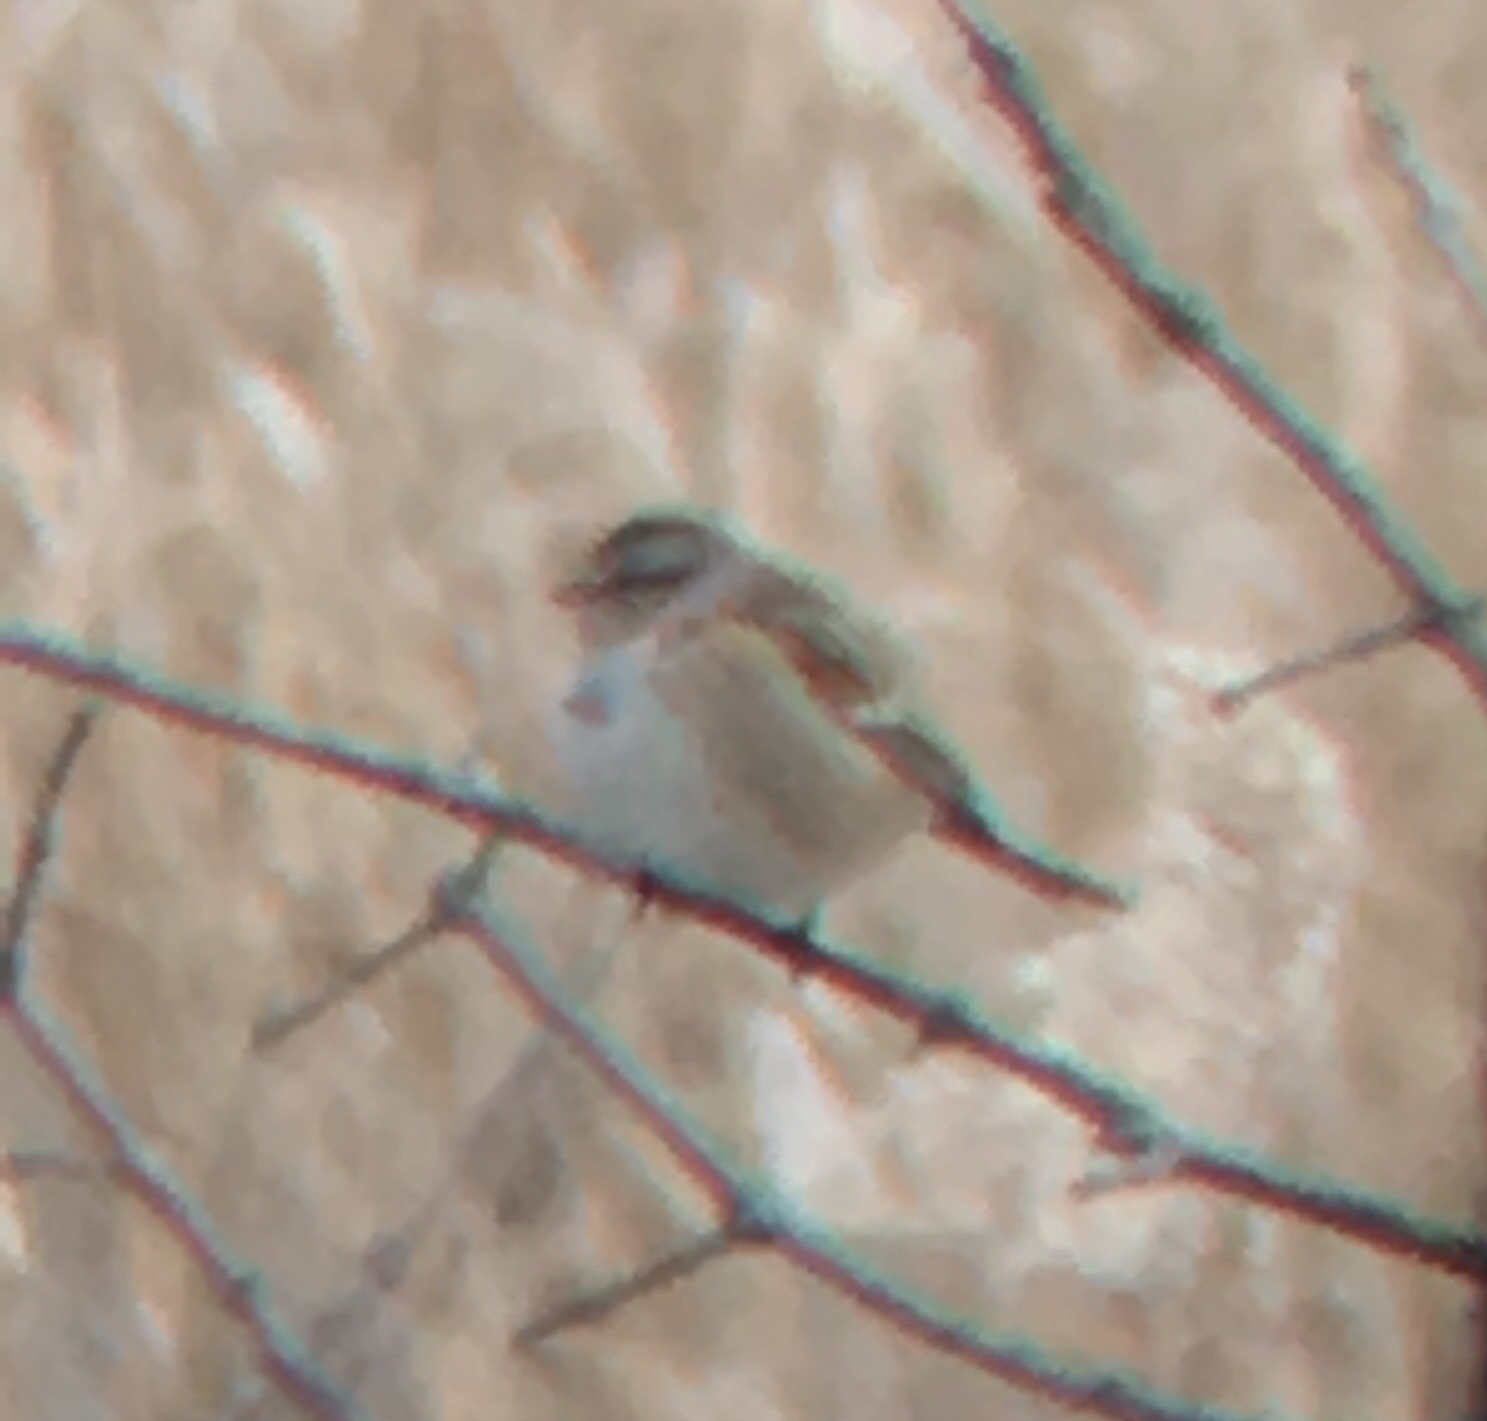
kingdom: Animalia
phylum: Chordata
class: Aves
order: Passeriformes
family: Passerellidae
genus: Spizelloides
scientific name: Spizelloides arborea
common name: American tree sparrow
